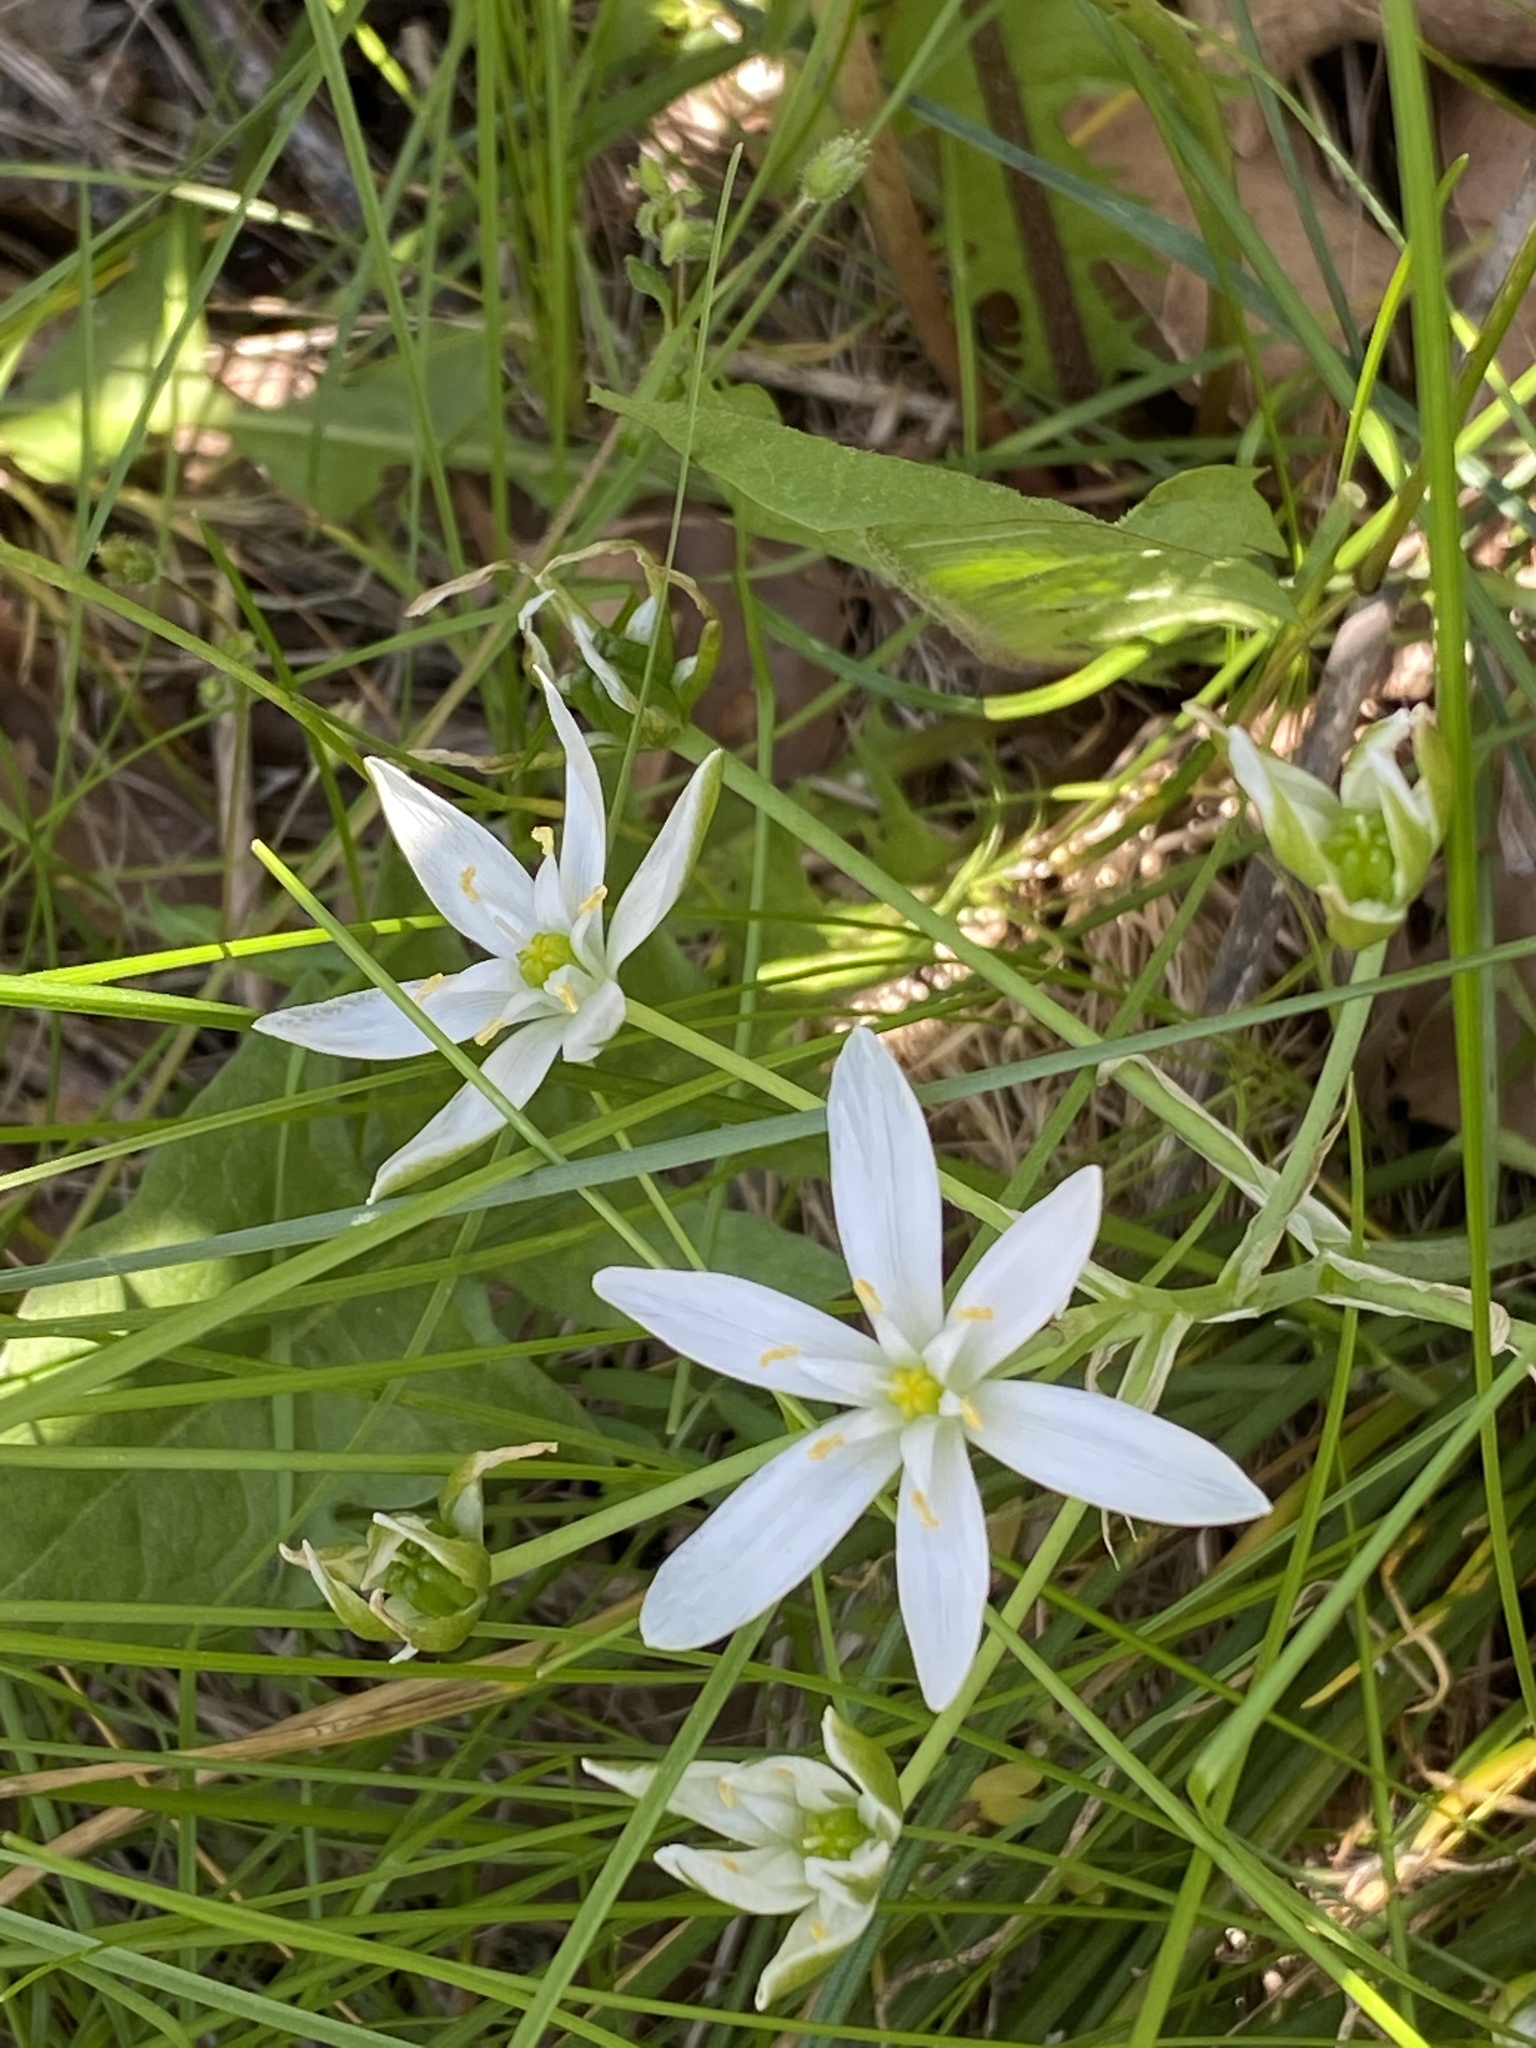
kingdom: Plantae
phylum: Tracheophyta
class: Liliopsida
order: Asparagales
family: Asparagaceae
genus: Ornithogalum
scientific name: Ornithogalum umbellatum
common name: Garden star-of-bethlehem
